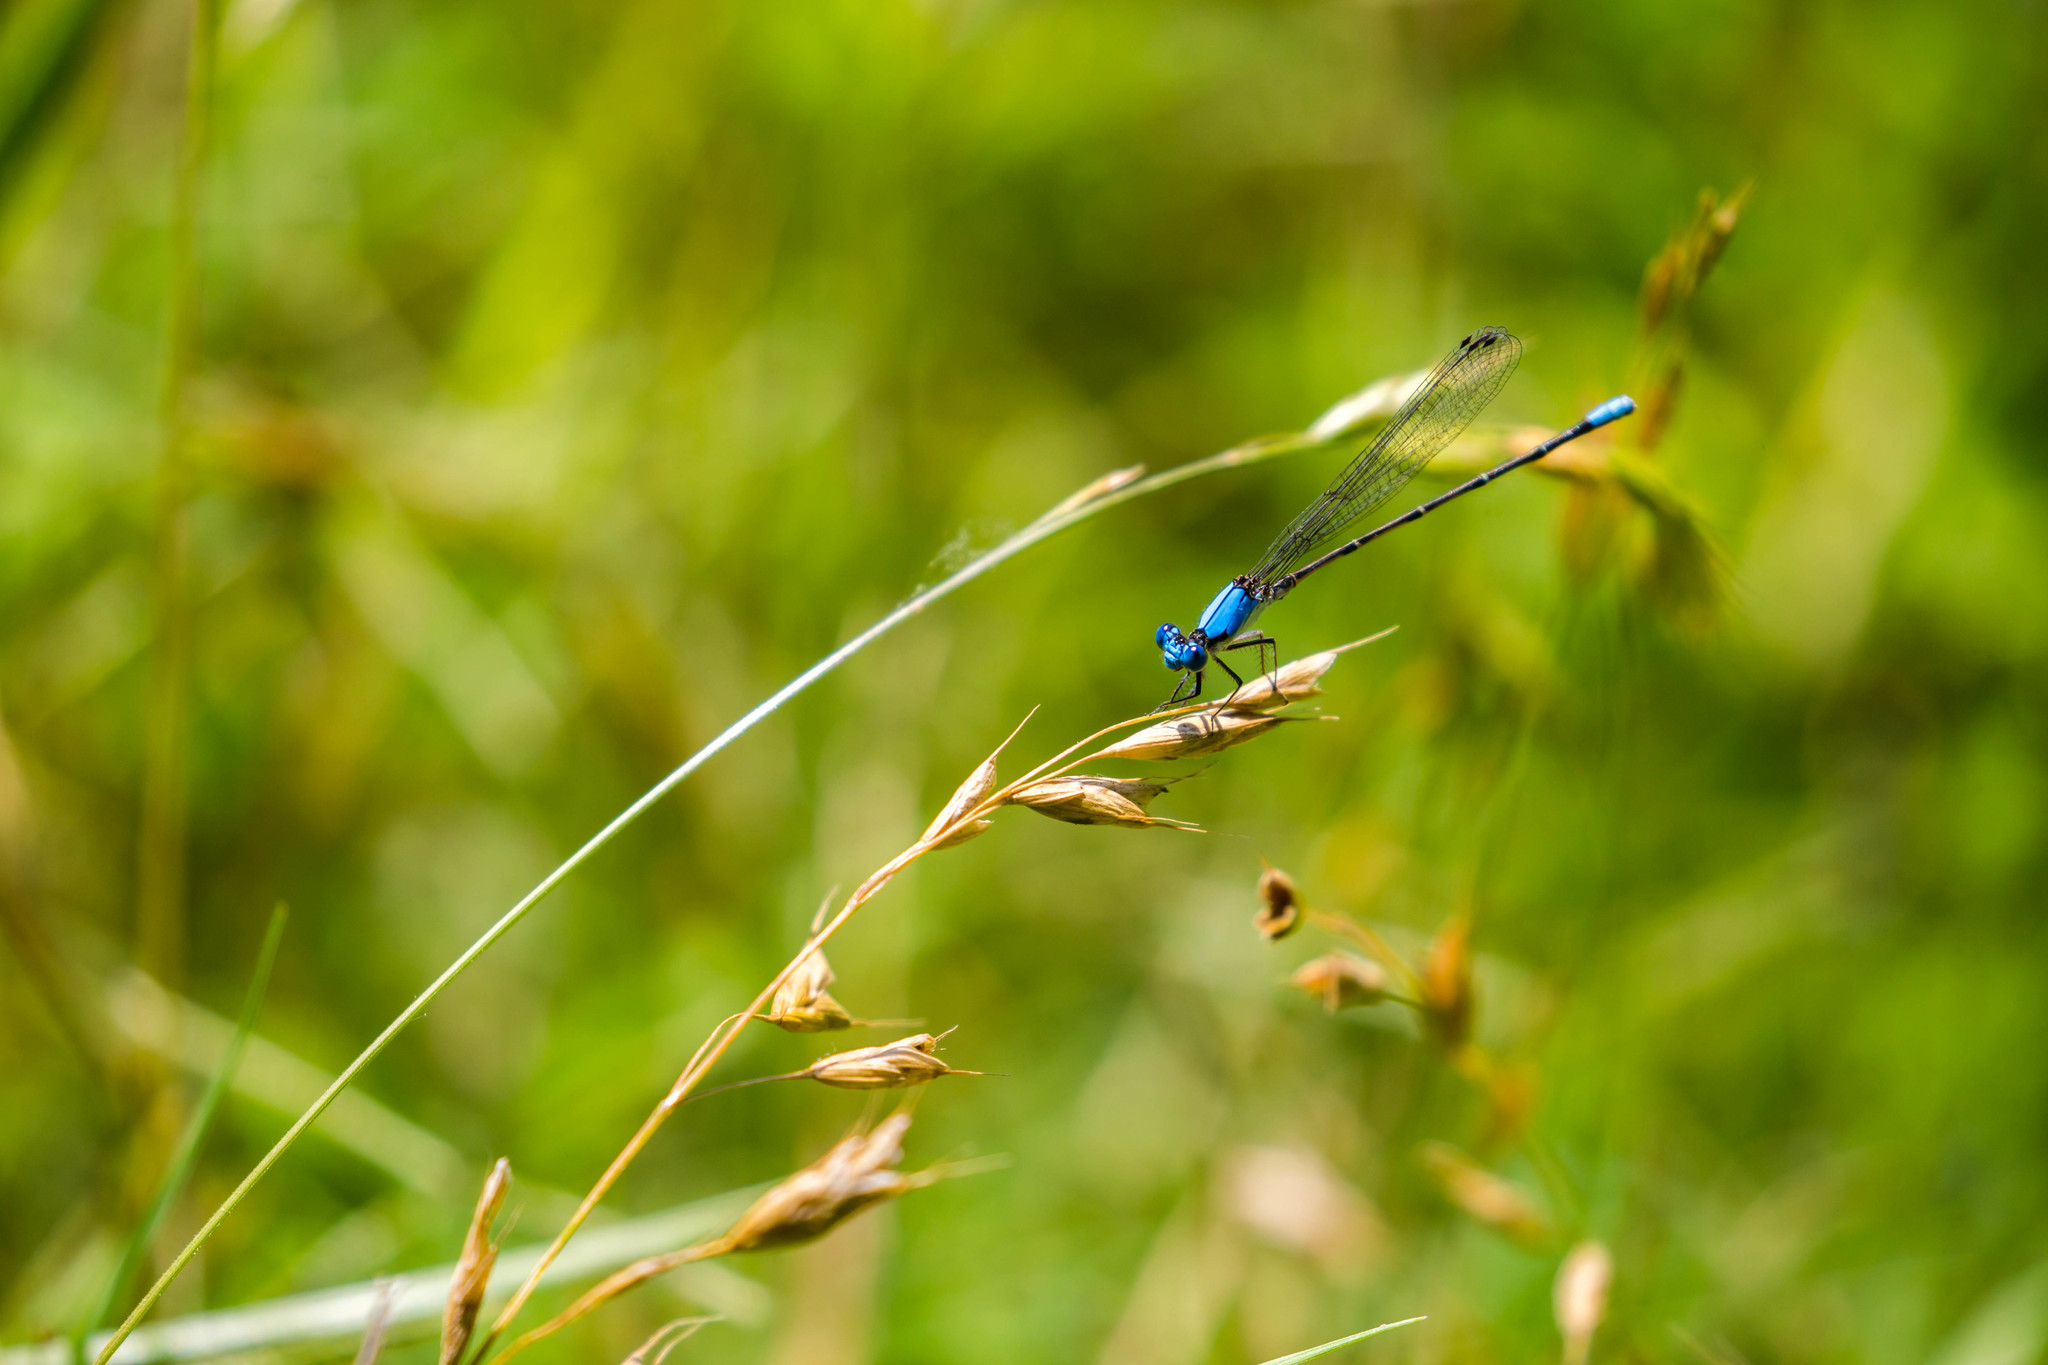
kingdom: Animalia
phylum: Arthropoda
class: Insecta
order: Odonata
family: Coenagrionidae
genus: Argia
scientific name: Argia apicalis
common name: Blue-fronted dancer
